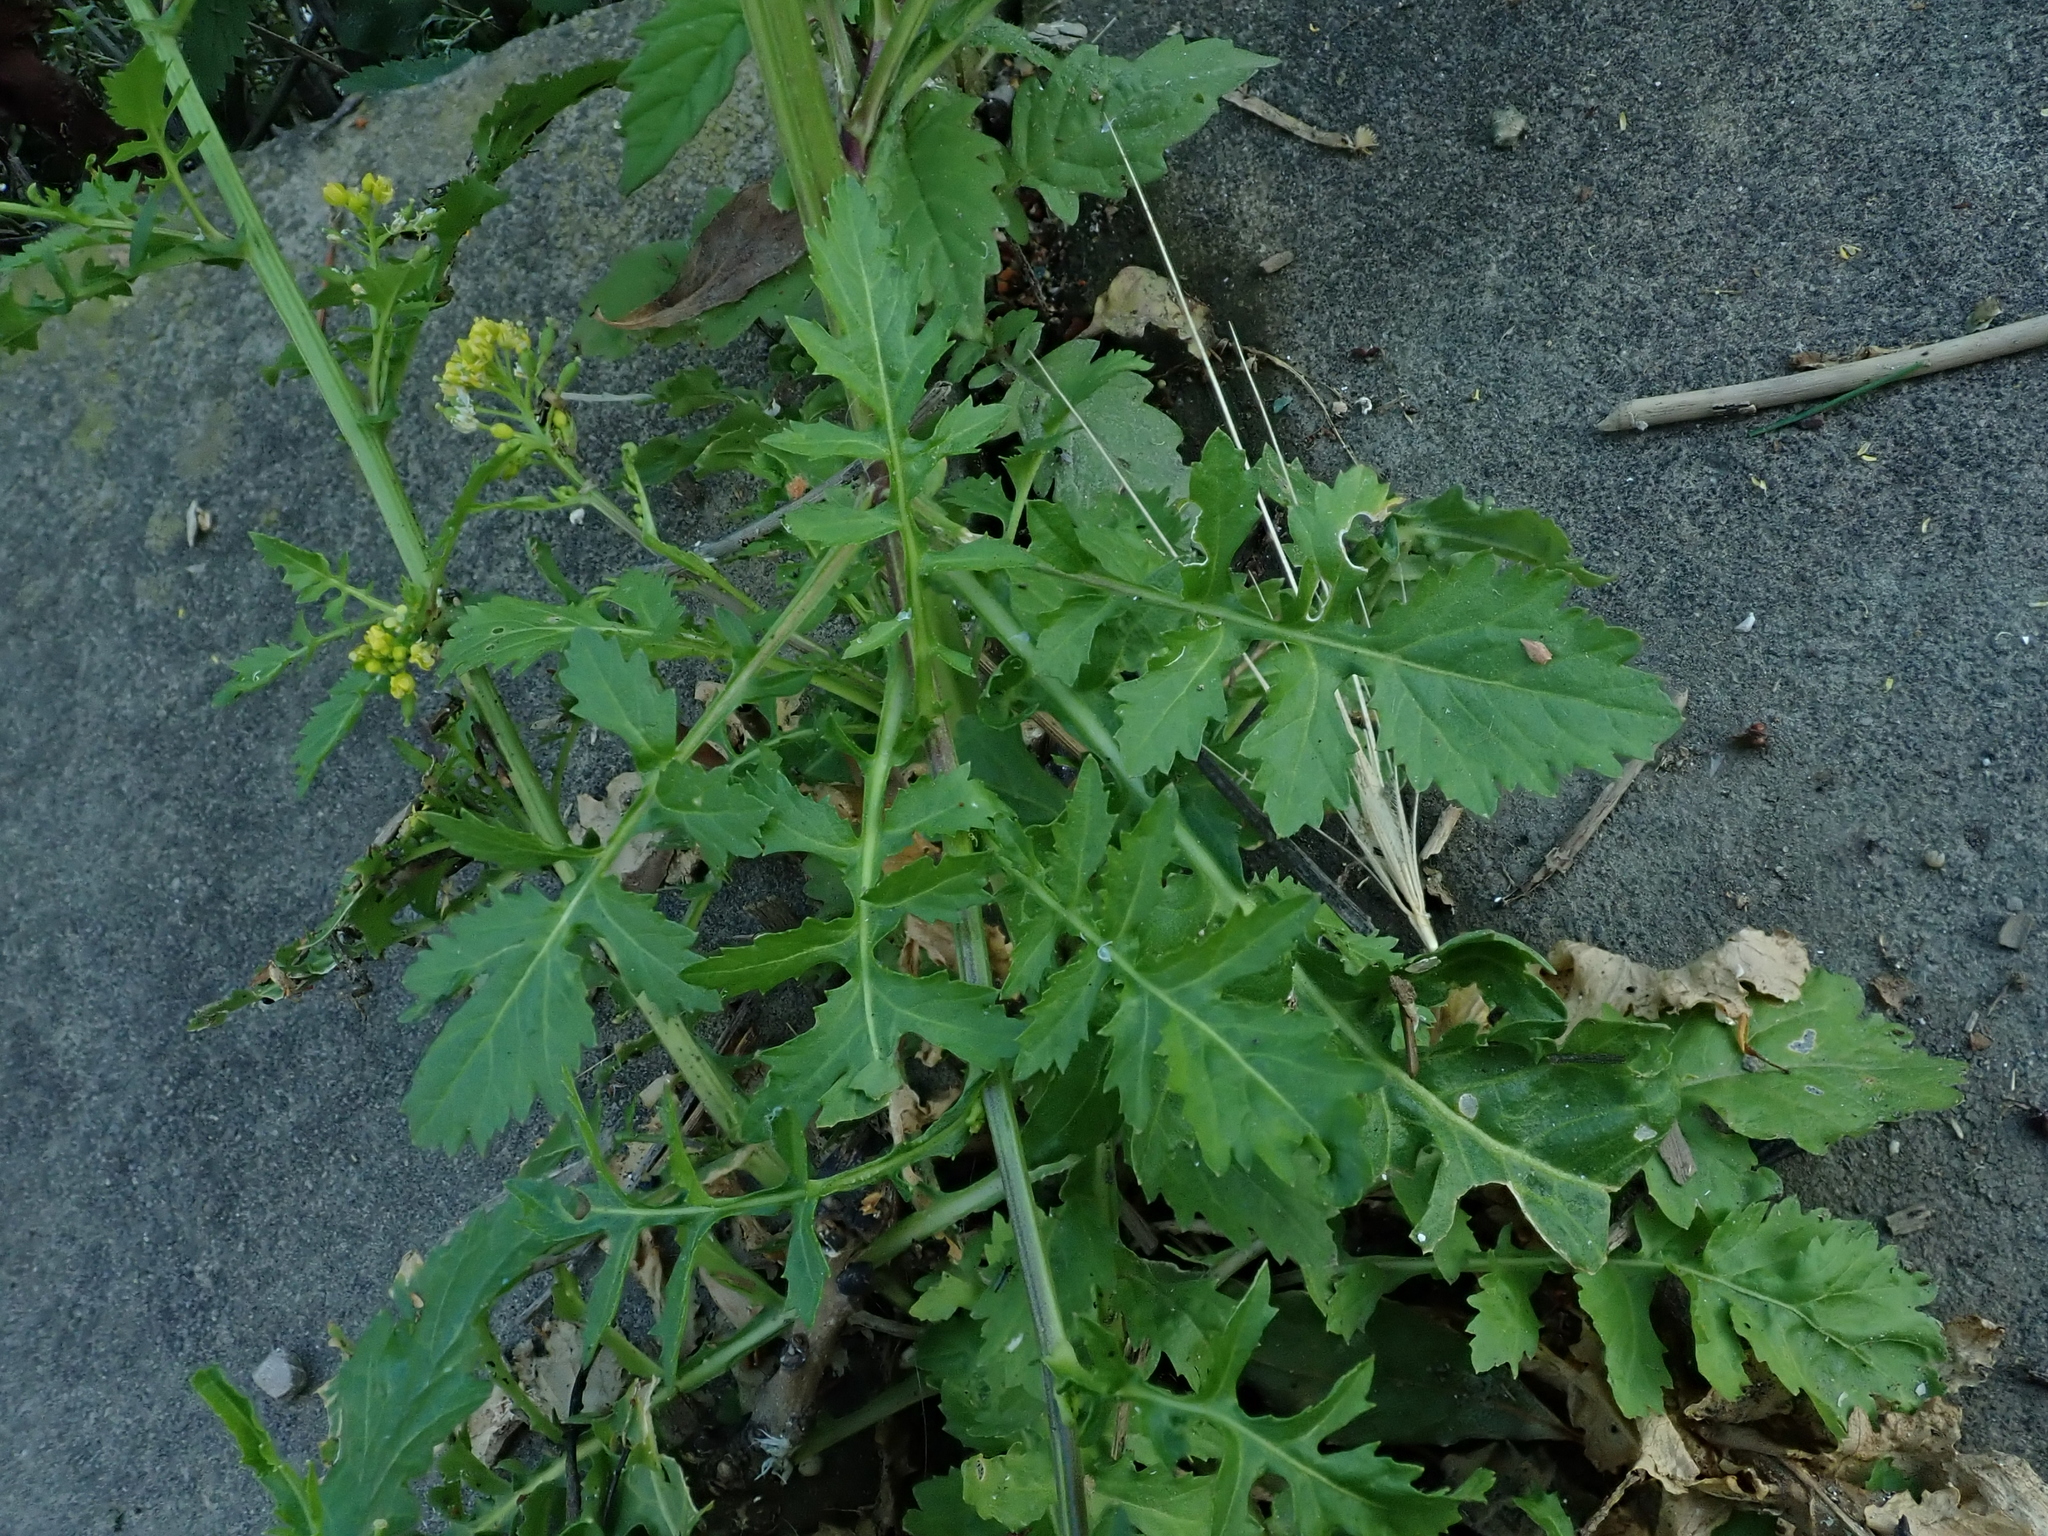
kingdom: Plantae
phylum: Tracheophyta
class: Magnoliopsida
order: Brassicales
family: Brassicaceae
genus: Rorippa
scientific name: Rorippa palustris
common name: Marsh yellow-cress
